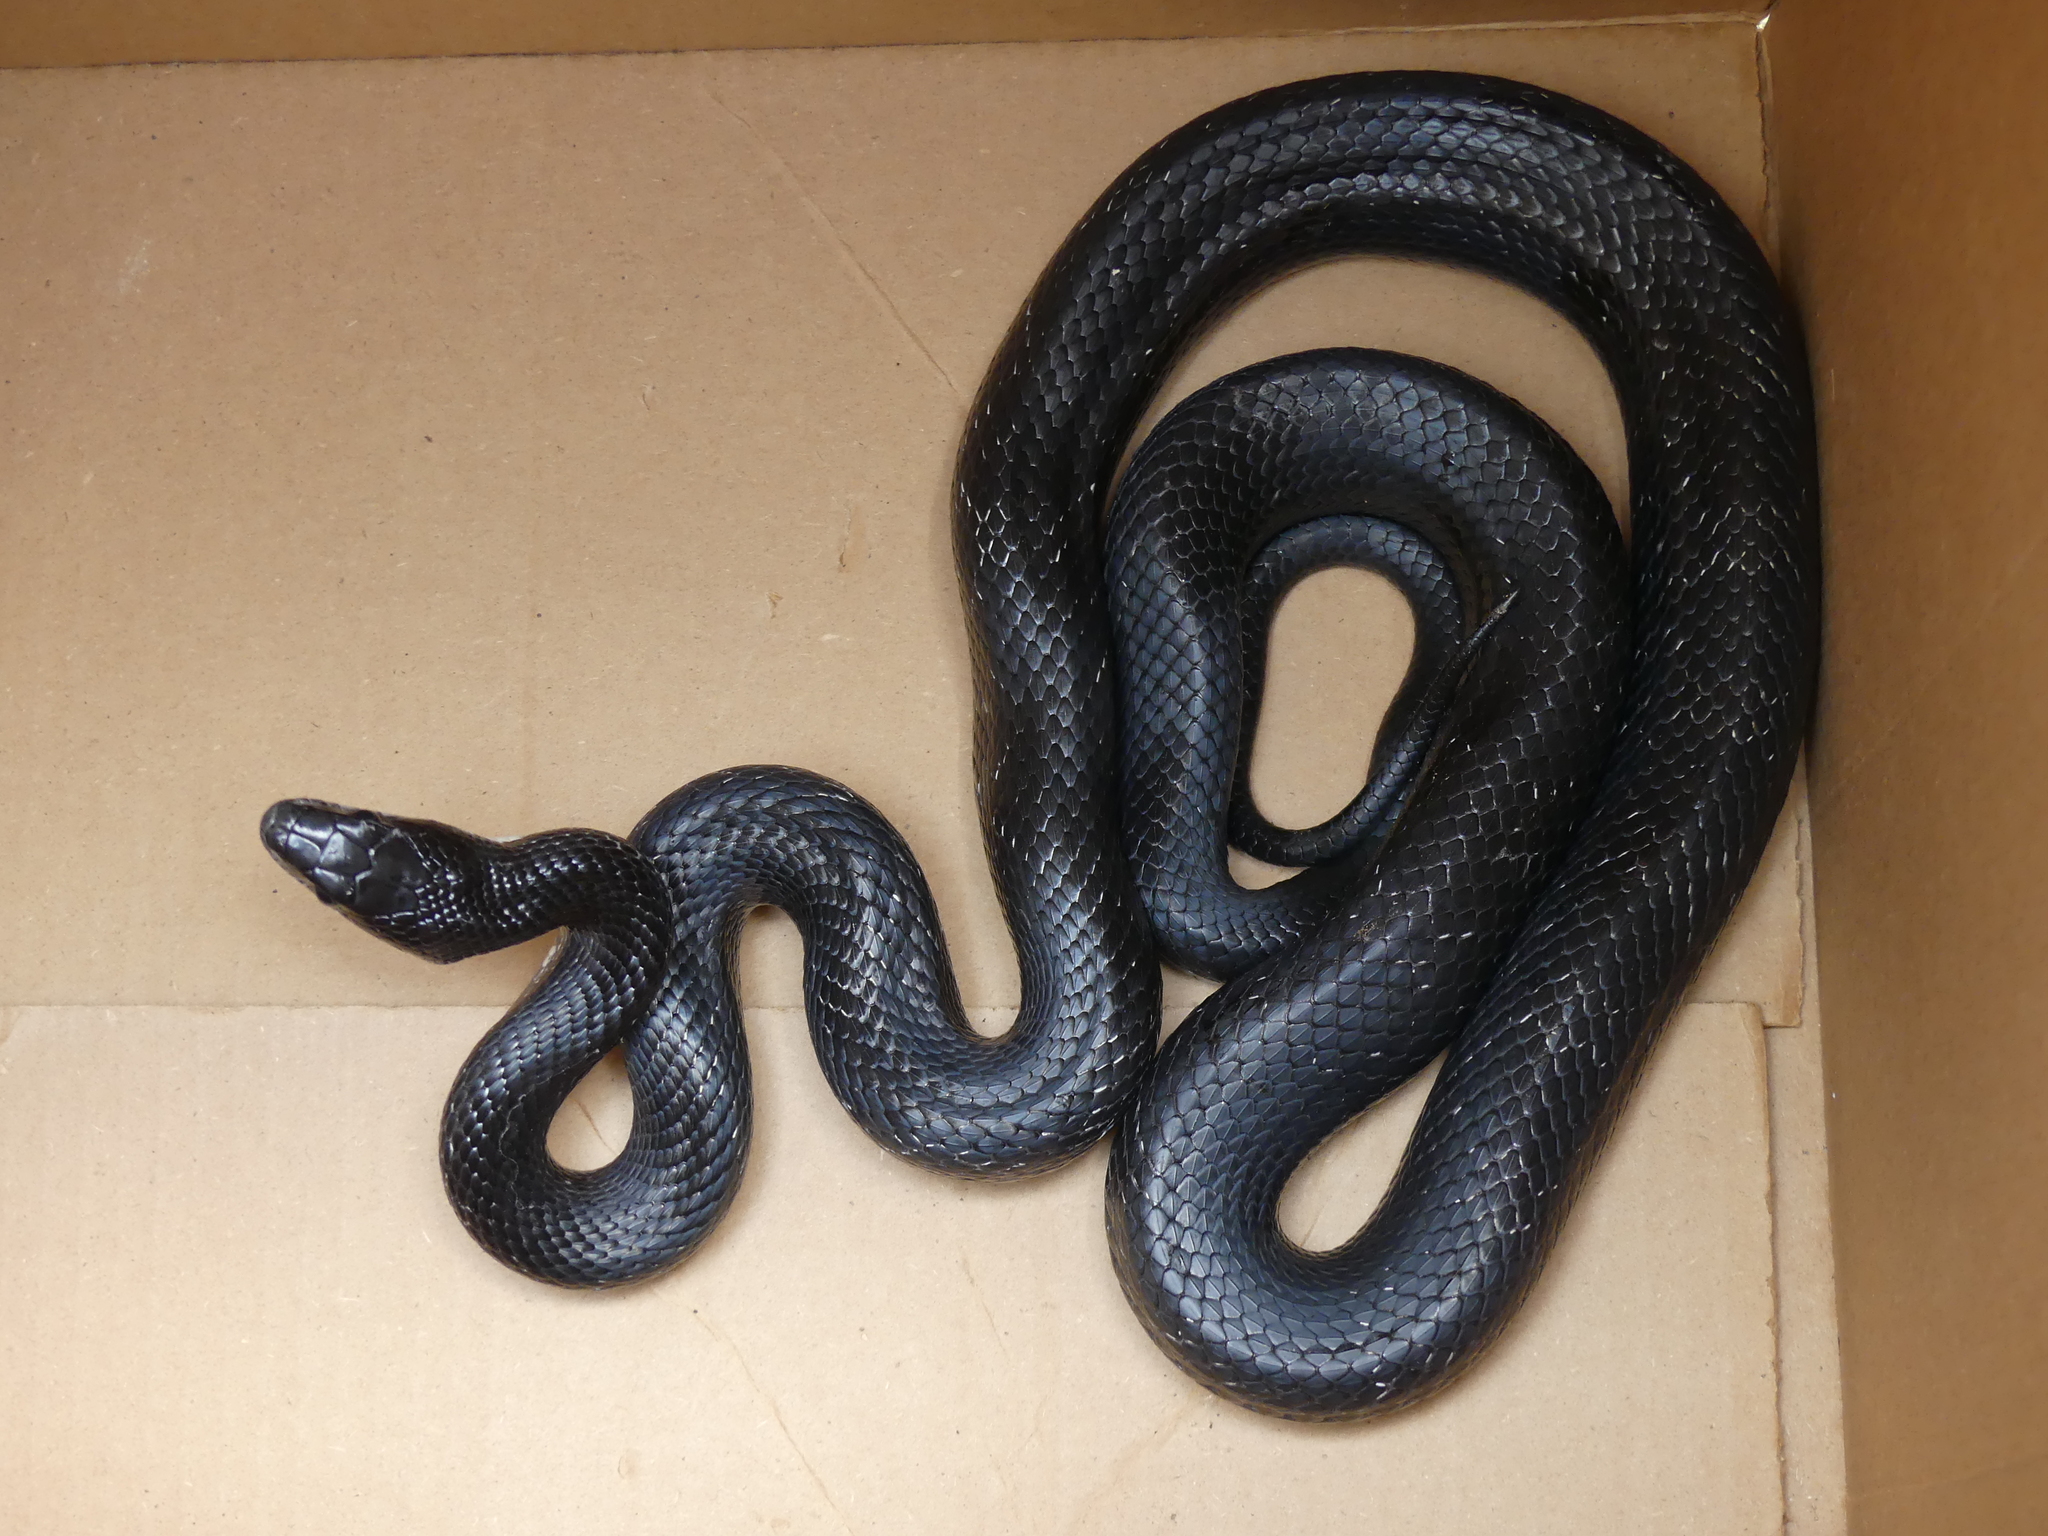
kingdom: Animalia
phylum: Chordata
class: Squamata
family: Colubridae
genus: Pantherophis
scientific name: Pantherophis alleghaniensis
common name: Eastern rat snake
